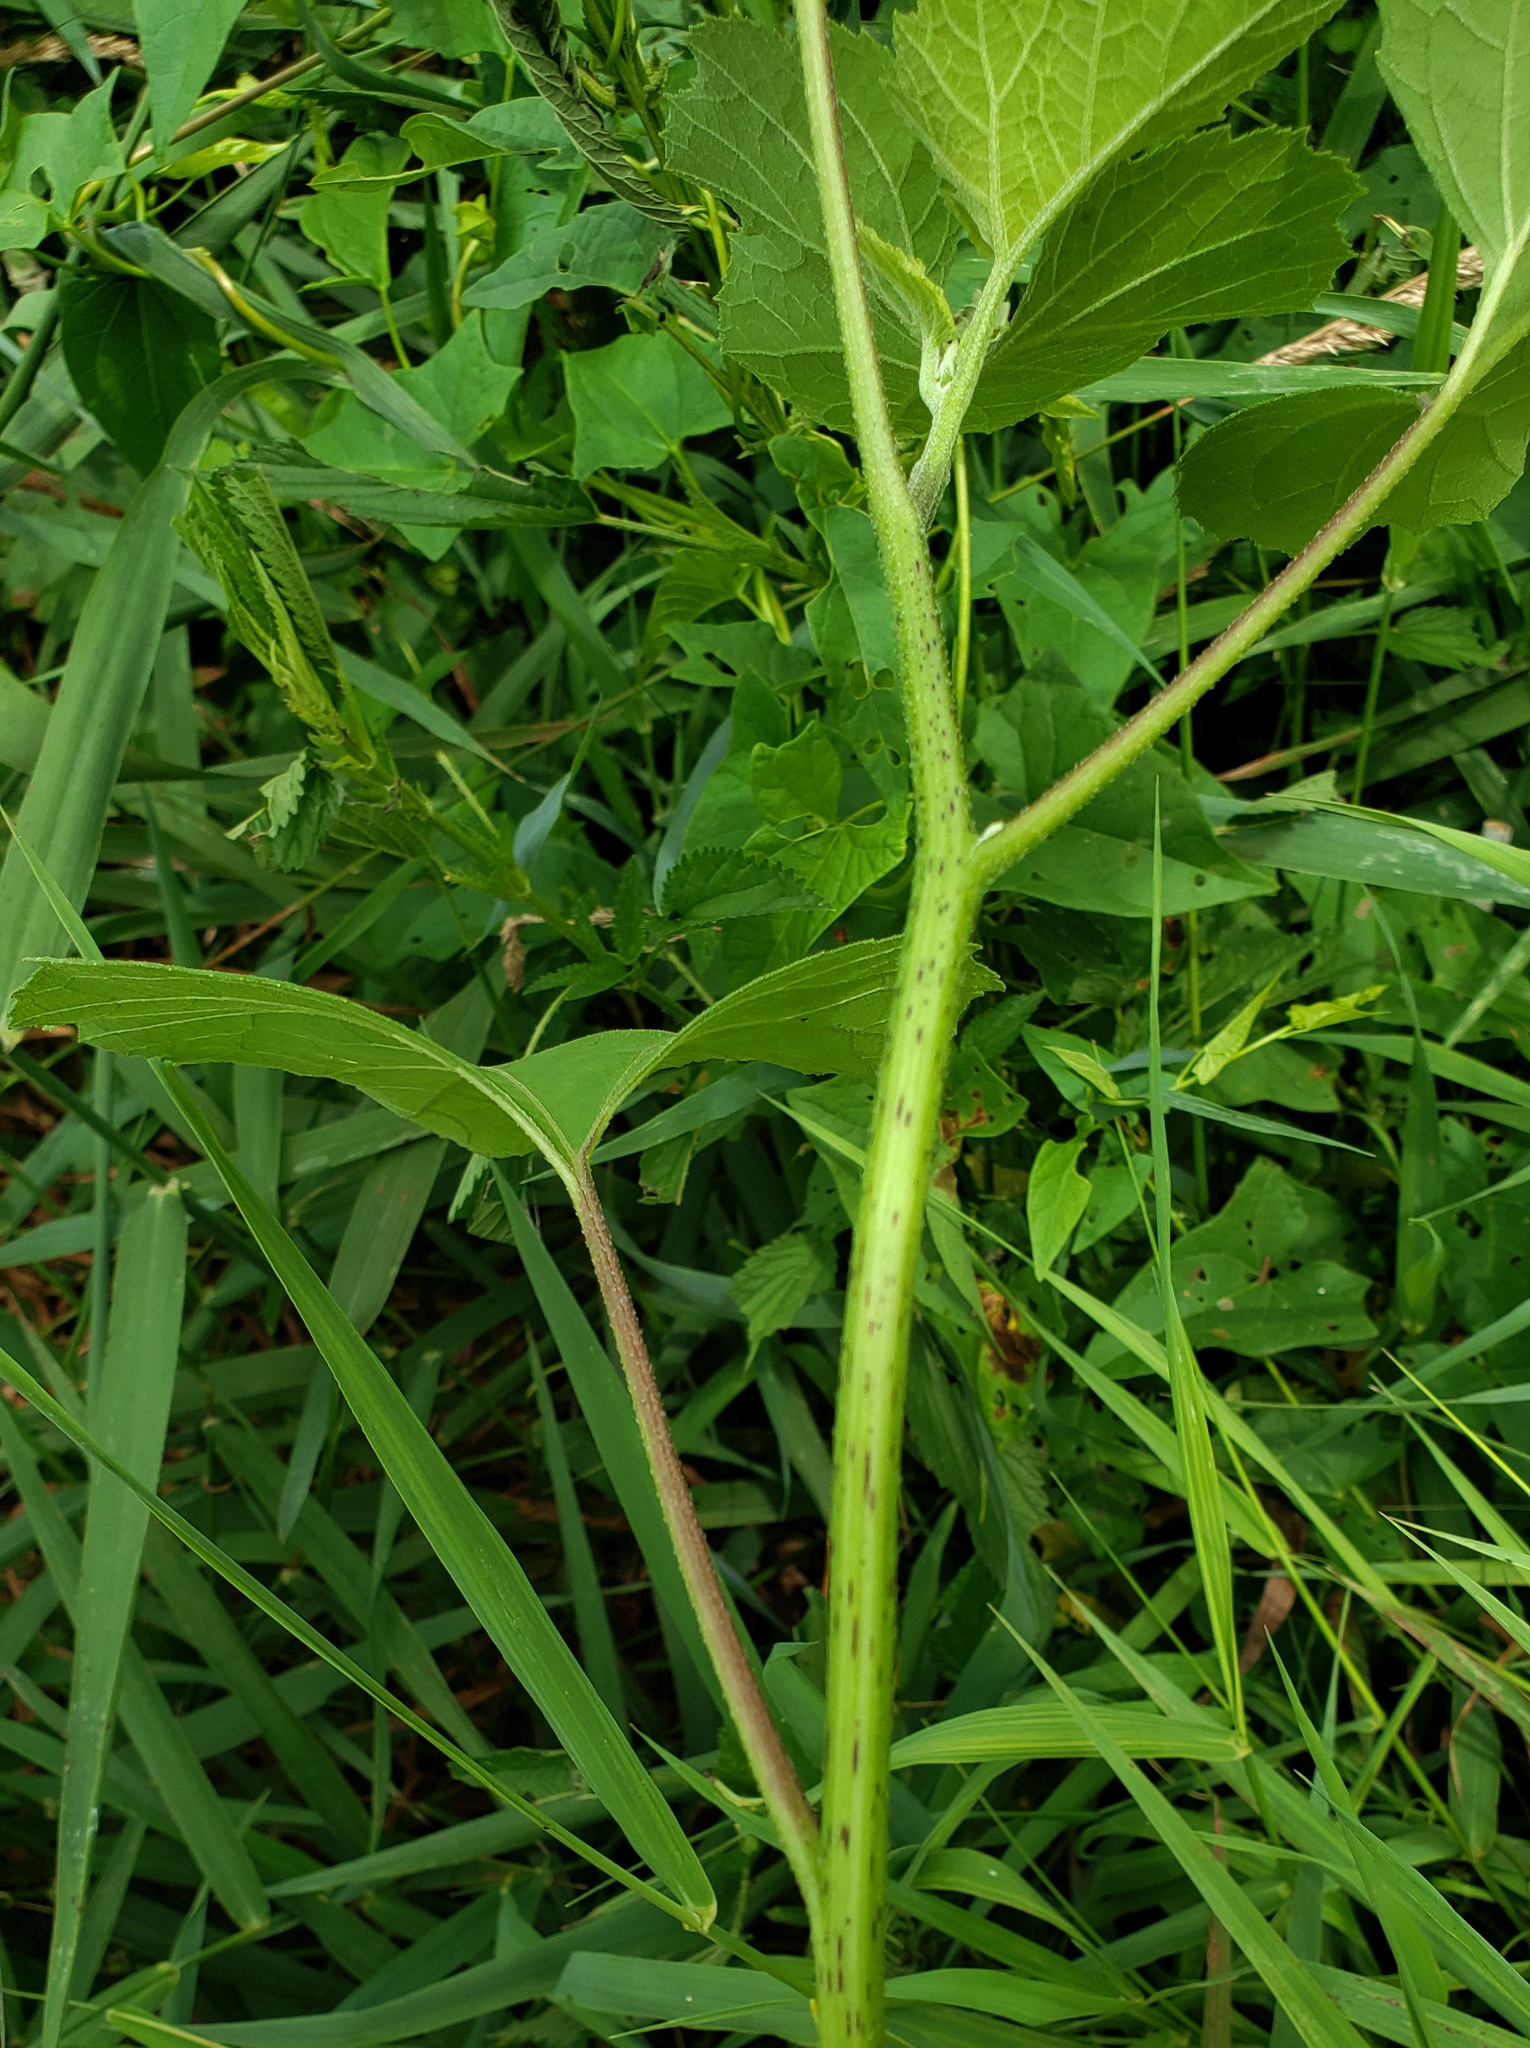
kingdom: Plantae
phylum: Tracheophyta
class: Magnoliopsida
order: Asterales
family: Asteraceae
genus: Xanthium
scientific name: Xanthium strumarium
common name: Rough cocklebur
